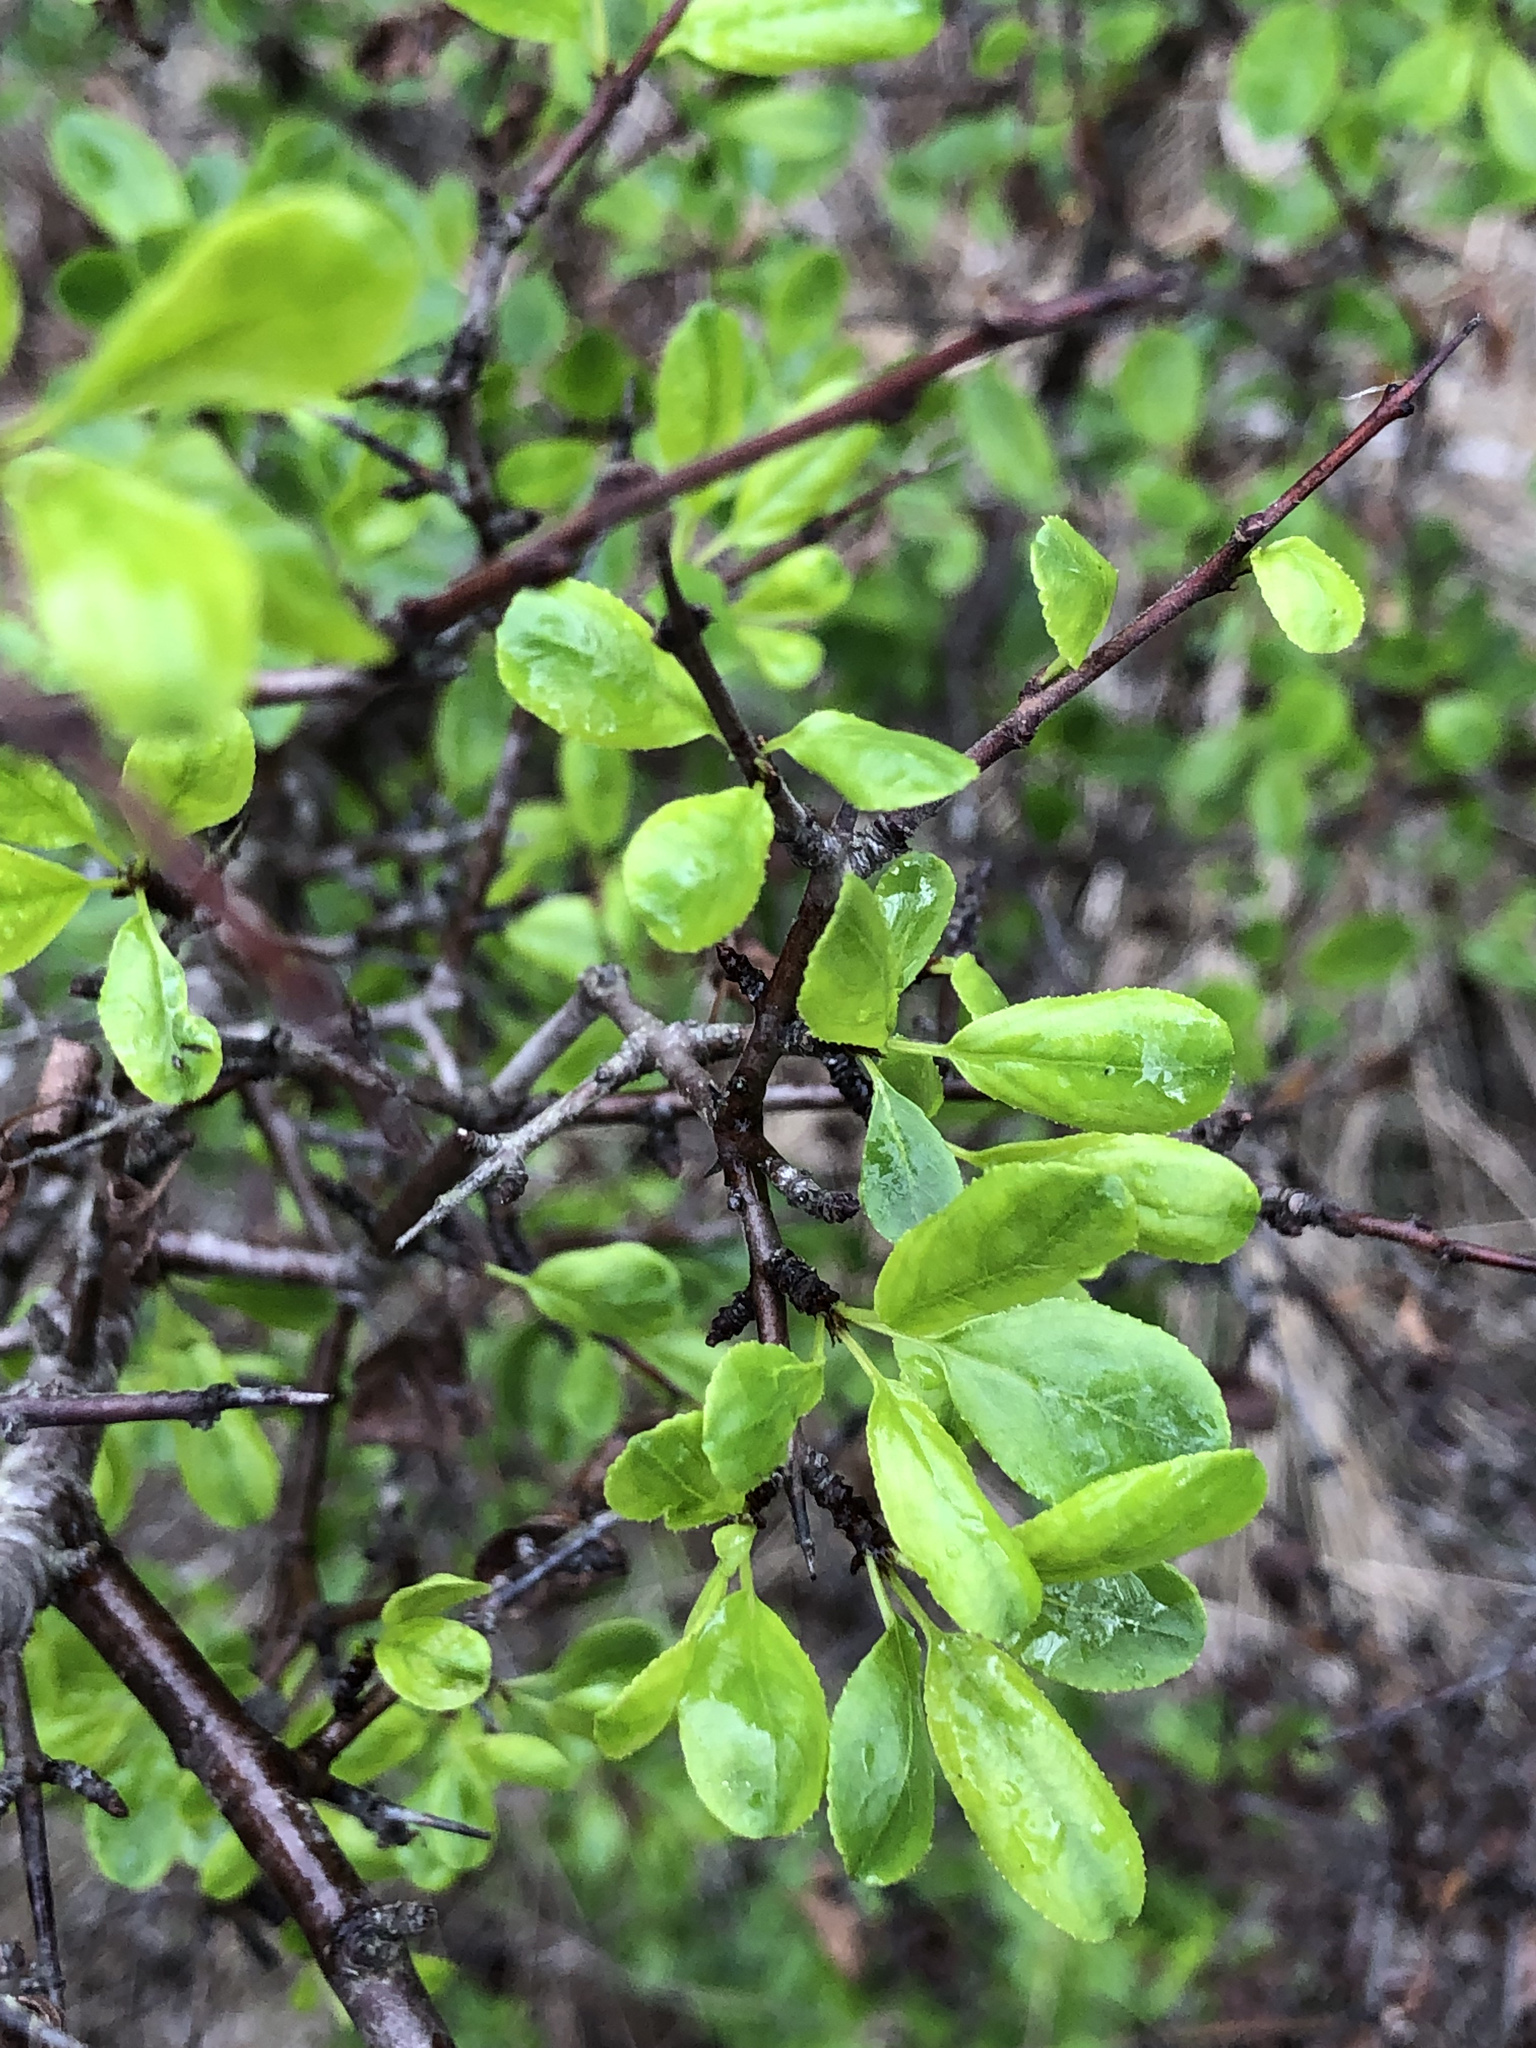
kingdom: Plantae
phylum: Tracheophyta
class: Magnoliopsida
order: Rosales
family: Rhamnaceae
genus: Rhamnus
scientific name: Rhamnus saxatilis
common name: Rock buckthorn
